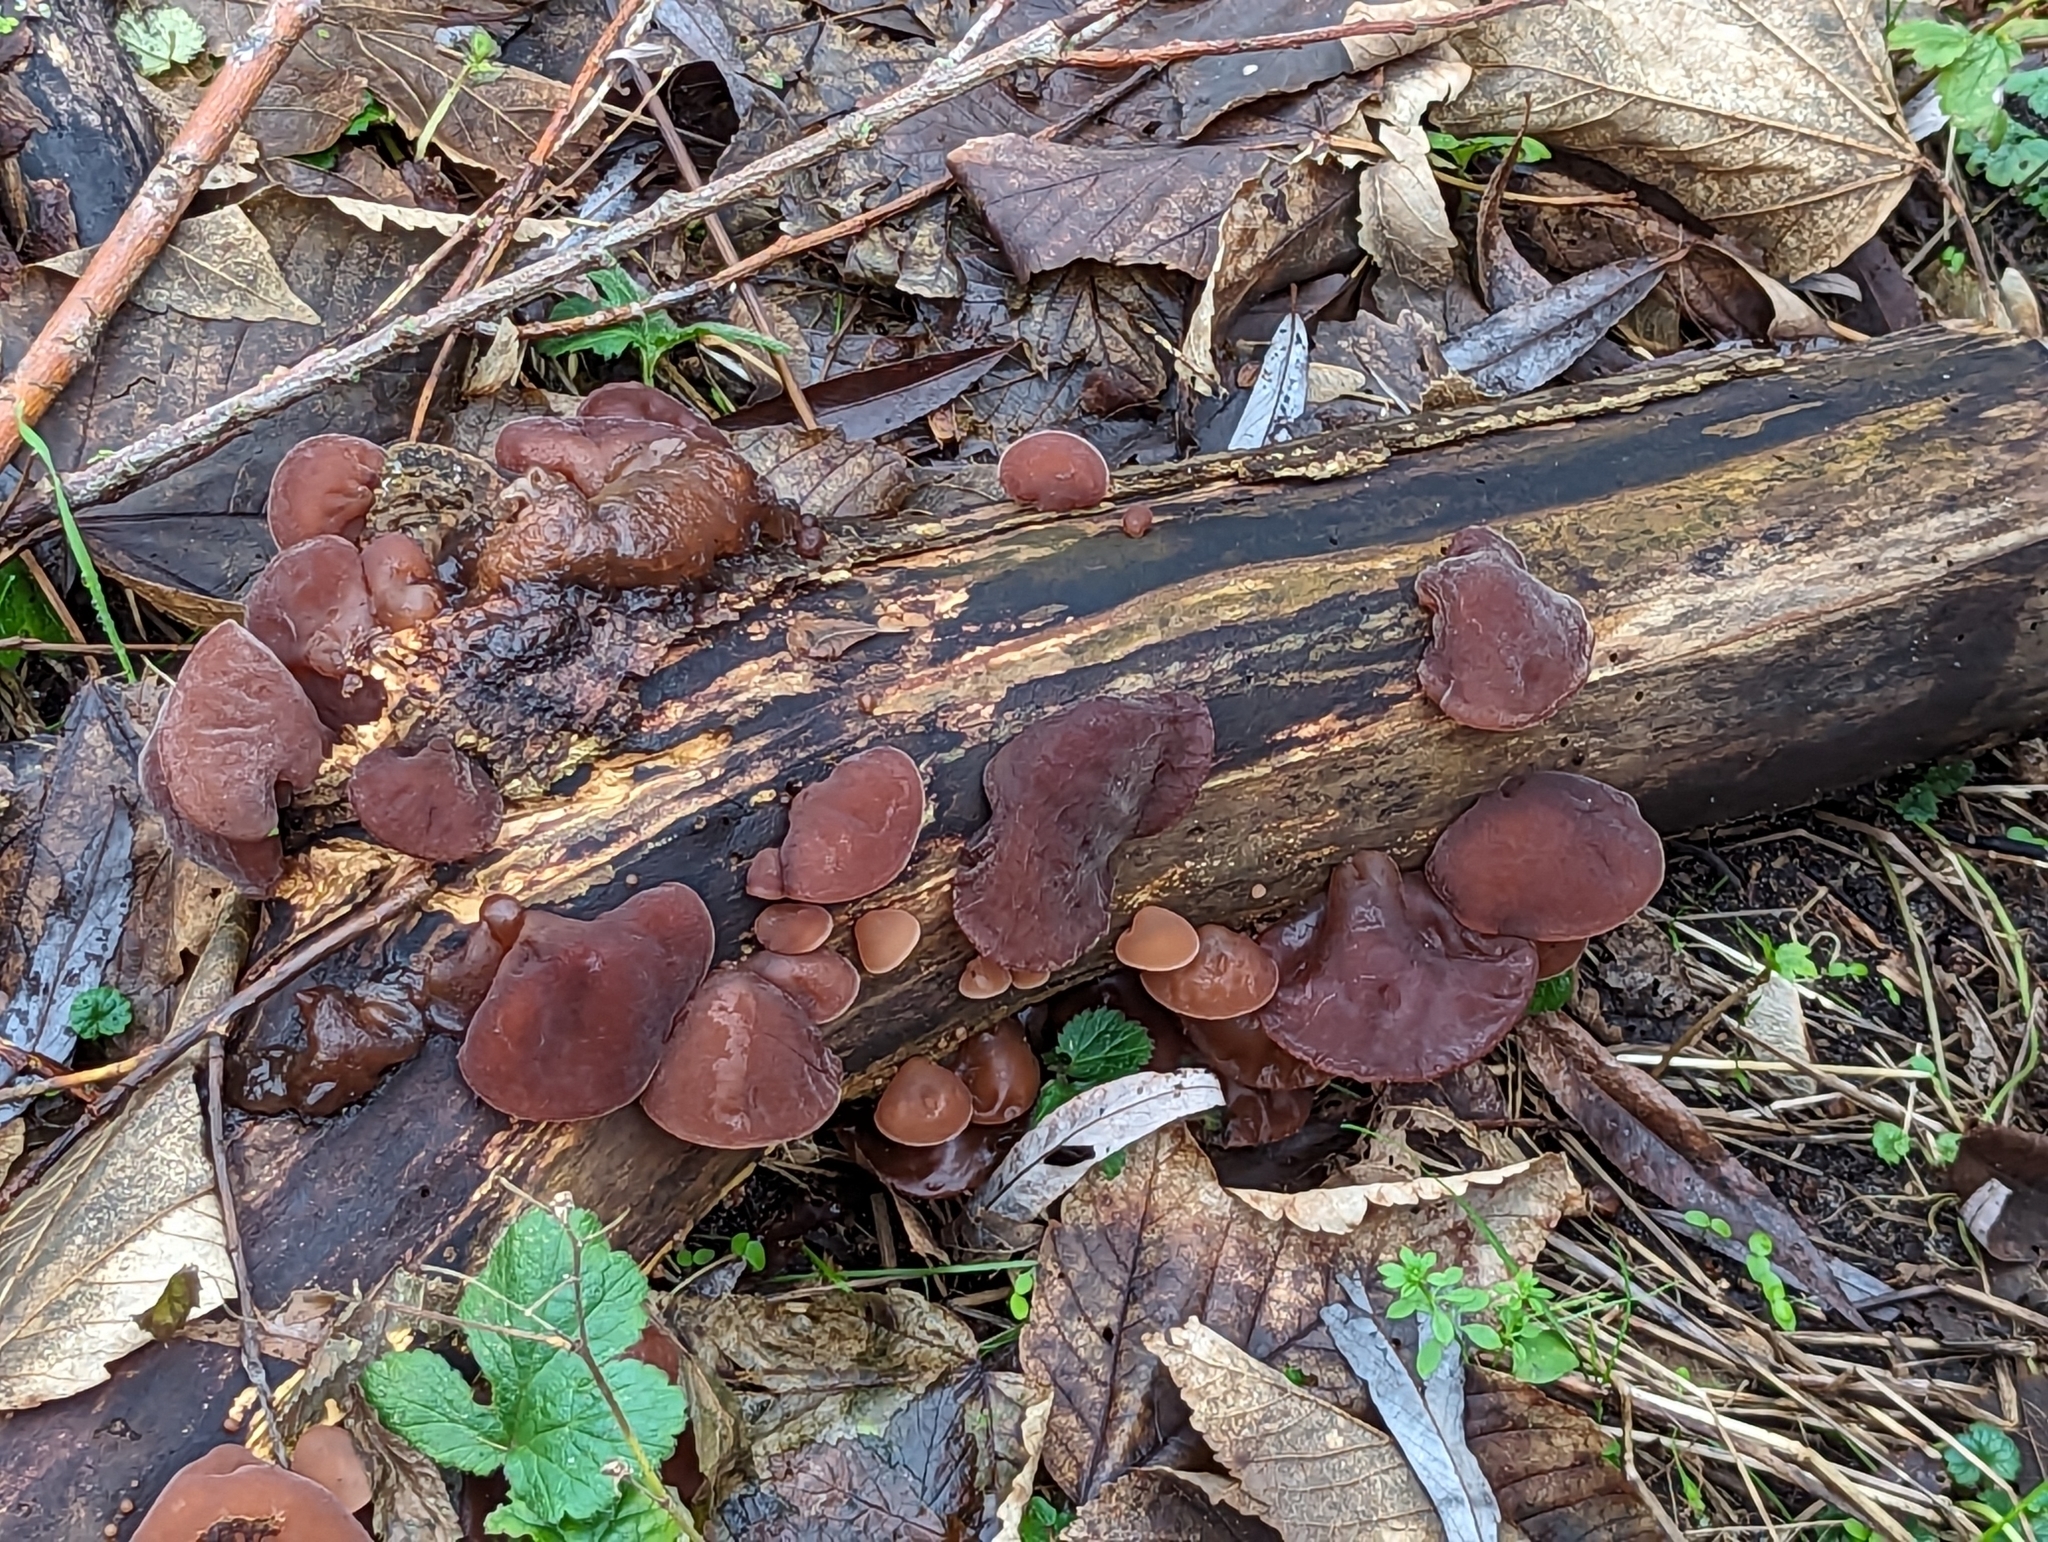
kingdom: Fungi
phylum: Basidiomycota
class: Agaricomycetes
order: Auriculariales
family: Auriculariaceae
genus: Auricularia
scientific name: Auricularia auricula-judae
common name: Jelly ear
